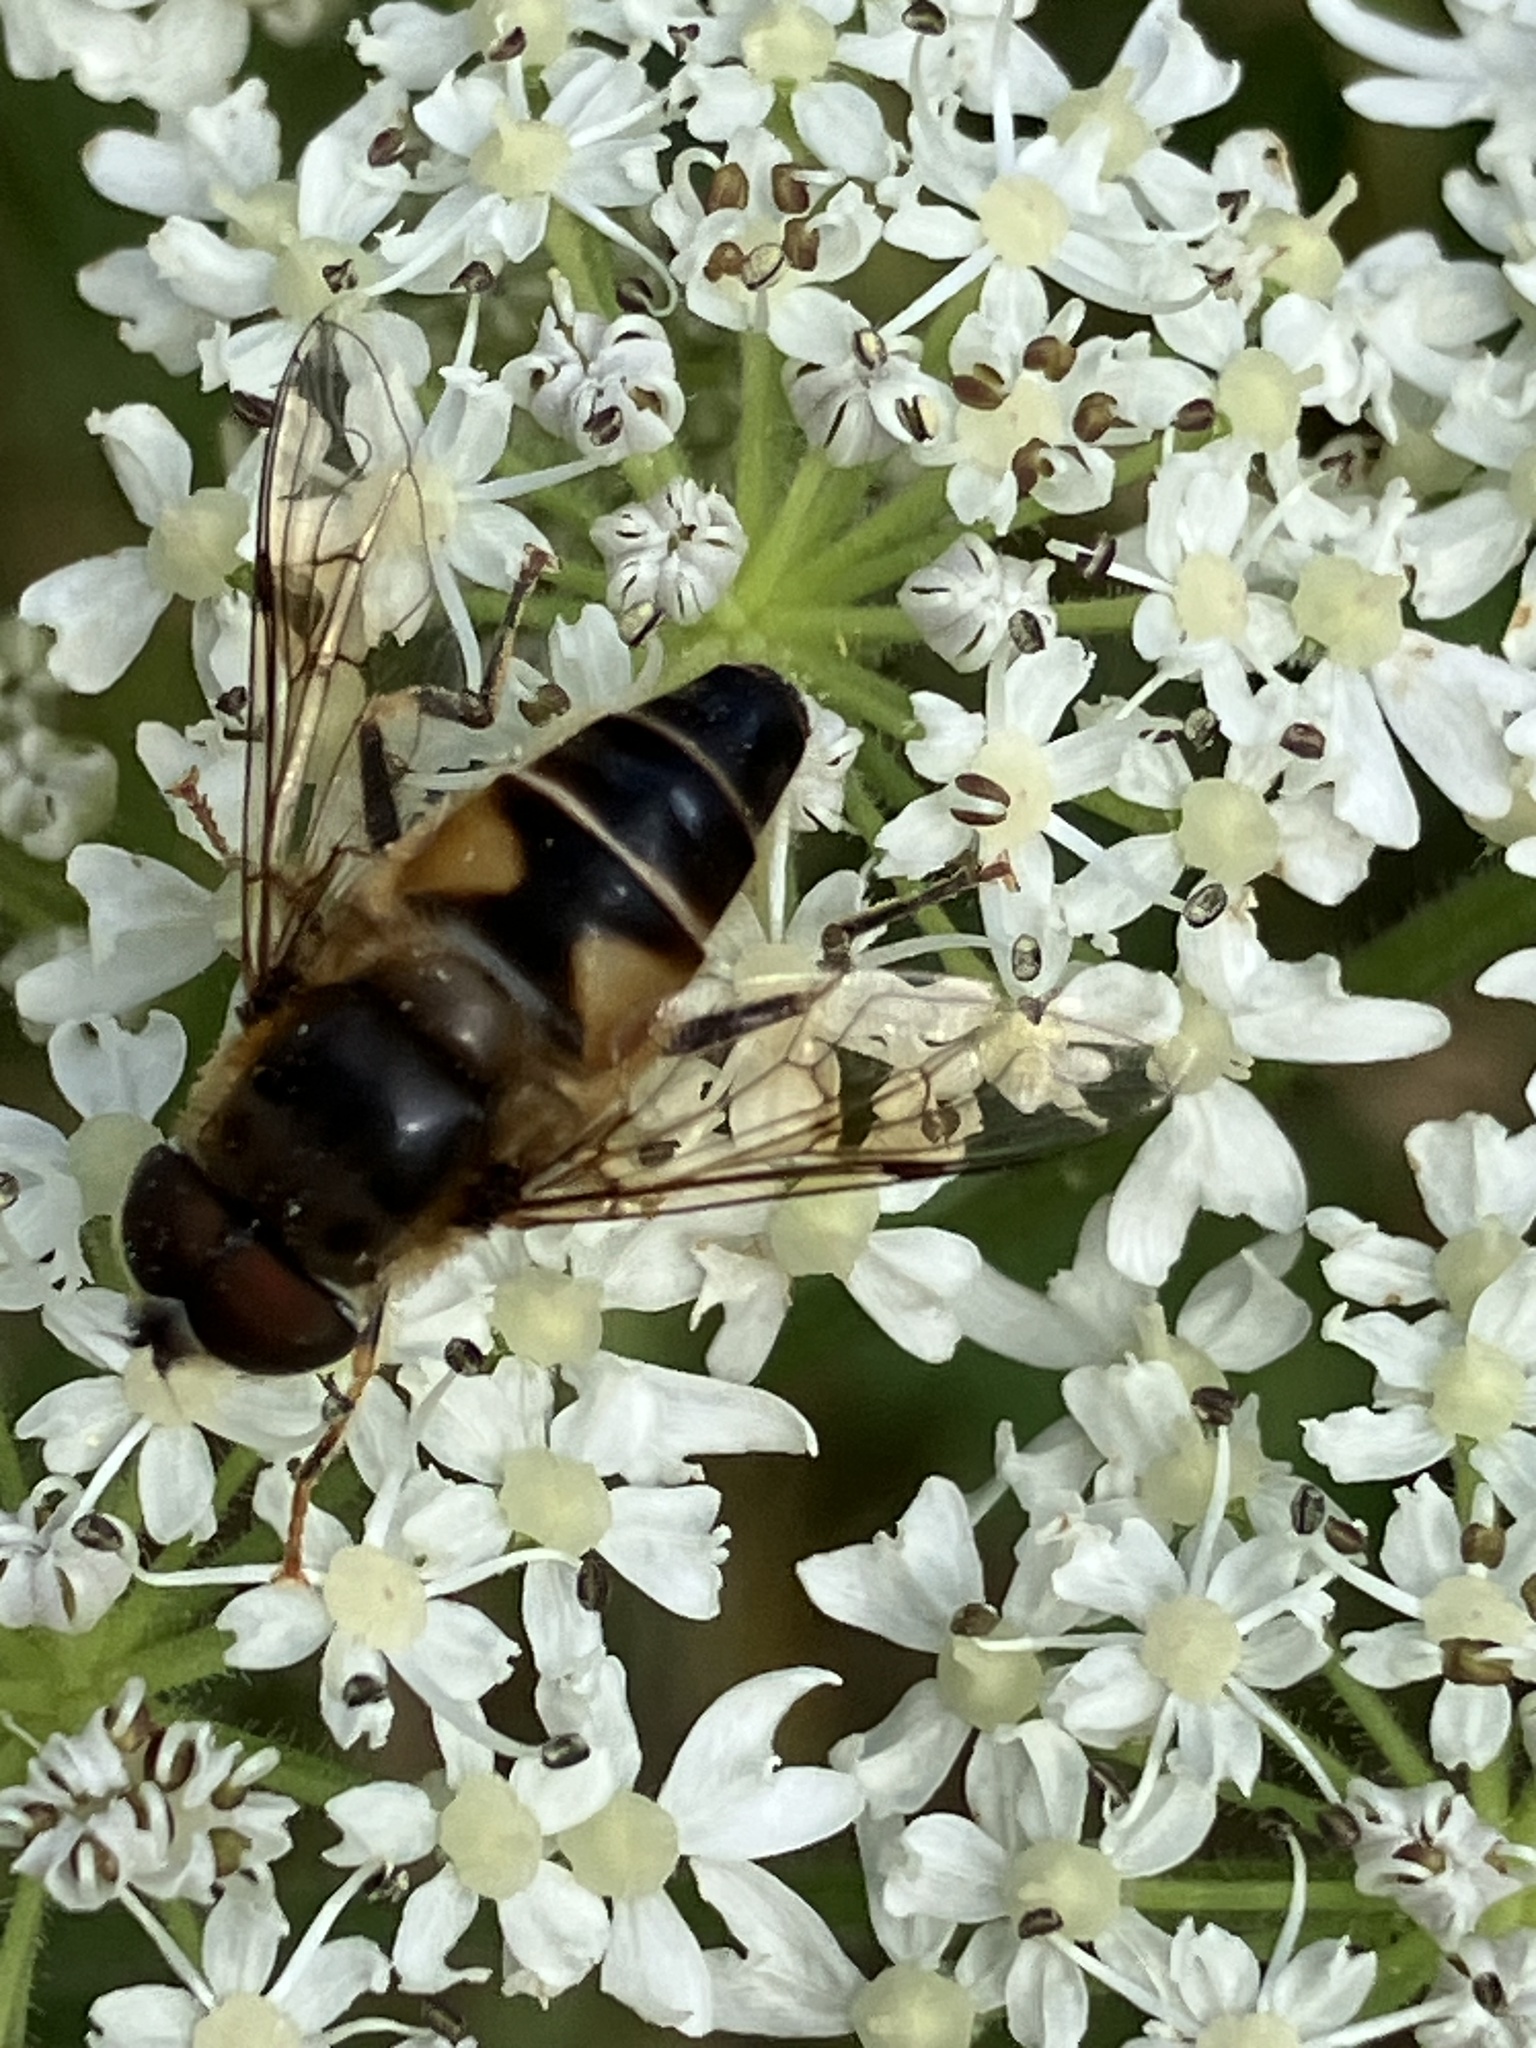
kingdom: Animalia
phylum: Arthropoda
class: Insecta
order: Diptera
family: Syrphidae
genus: Eristalis
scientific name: Eristalis pertinax
